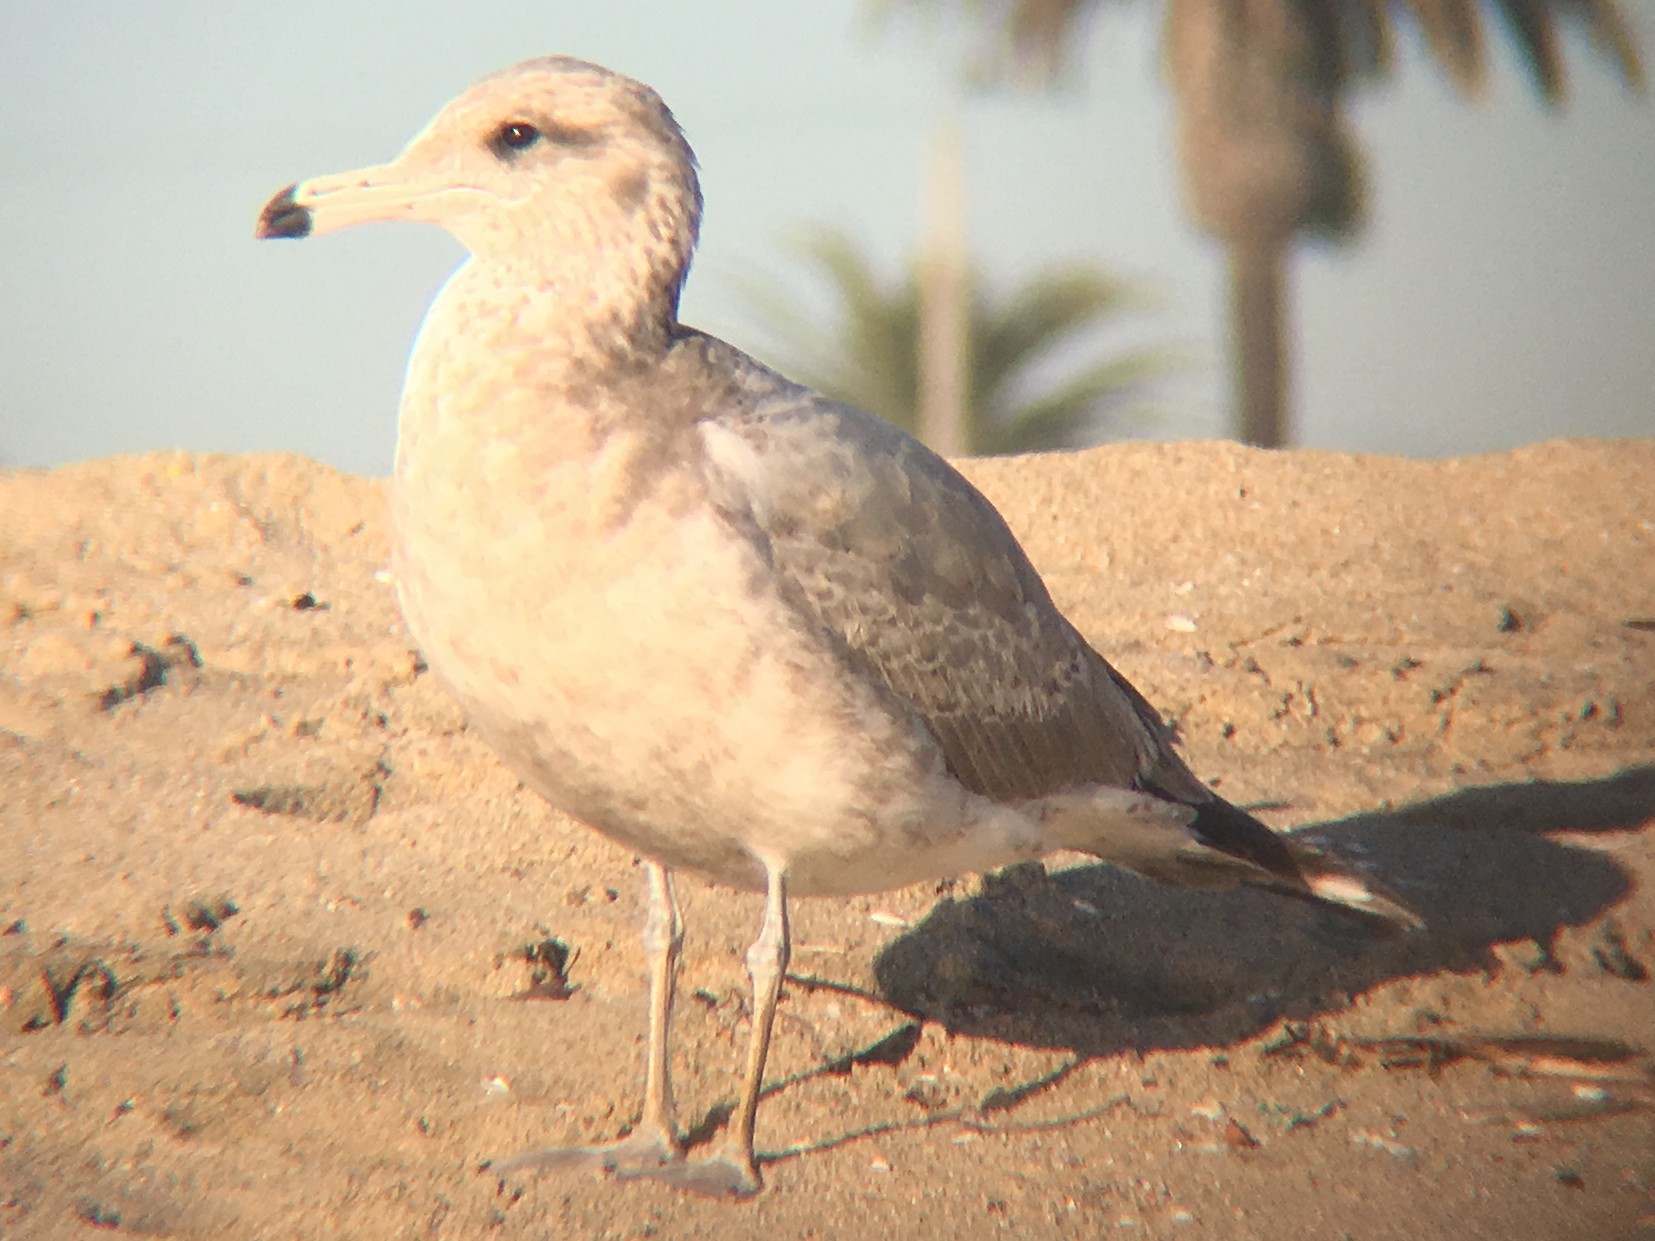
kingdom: Animalia
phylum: Chordata
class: Aves
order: Charadriiformes
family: Laridae
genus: Larus
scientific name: Larus californicus
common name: California gull
